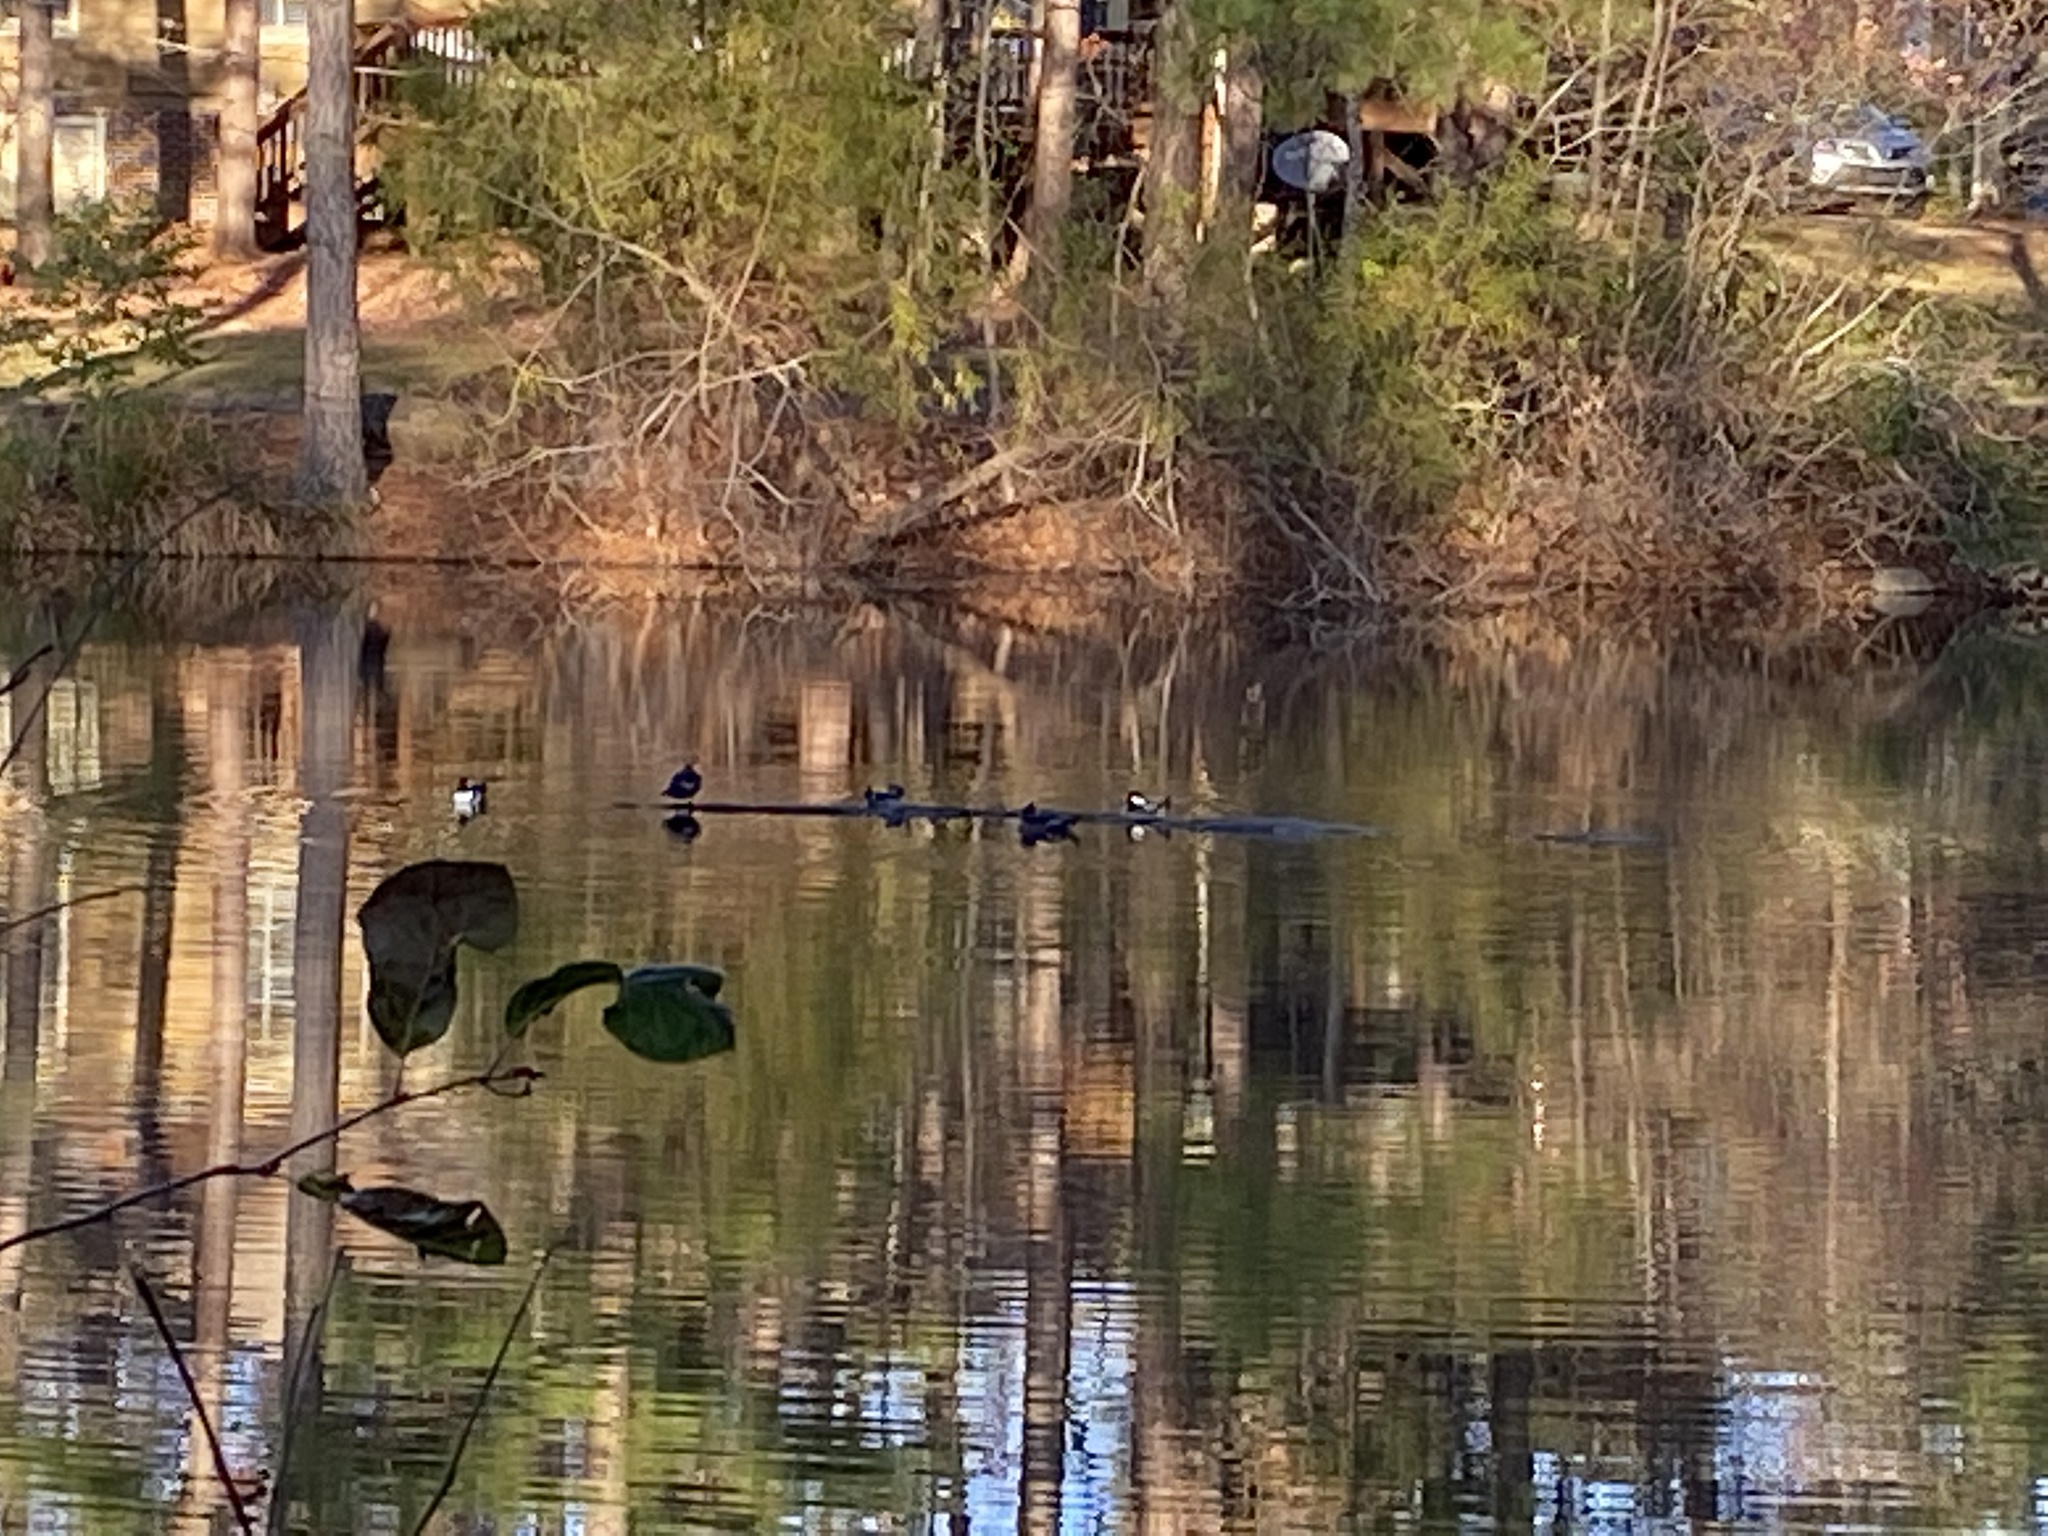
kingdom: Animalia
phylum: Chordata
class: Aves
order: Anseriformes
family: Anatidae
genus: Lophodytes
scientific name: Lophodytes cucullatus
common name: Hooded merganser
